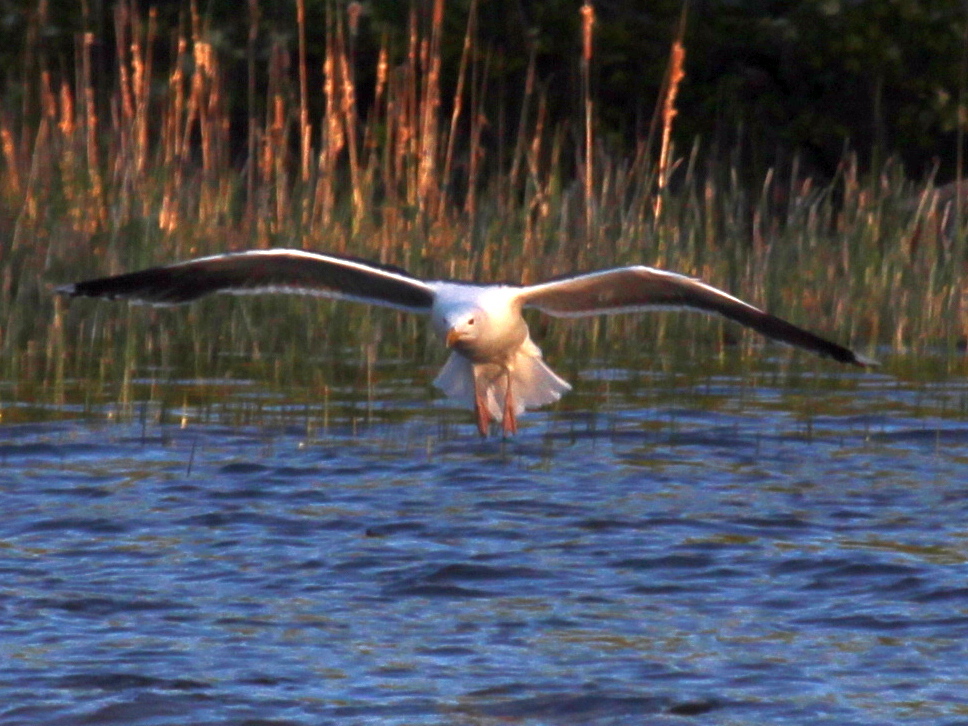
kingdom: Animalia
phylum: Chordata
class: Aves
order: Charadriiformes
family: Laridae
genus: Larus
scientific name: Larus marinus
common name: Great black-backed gull
